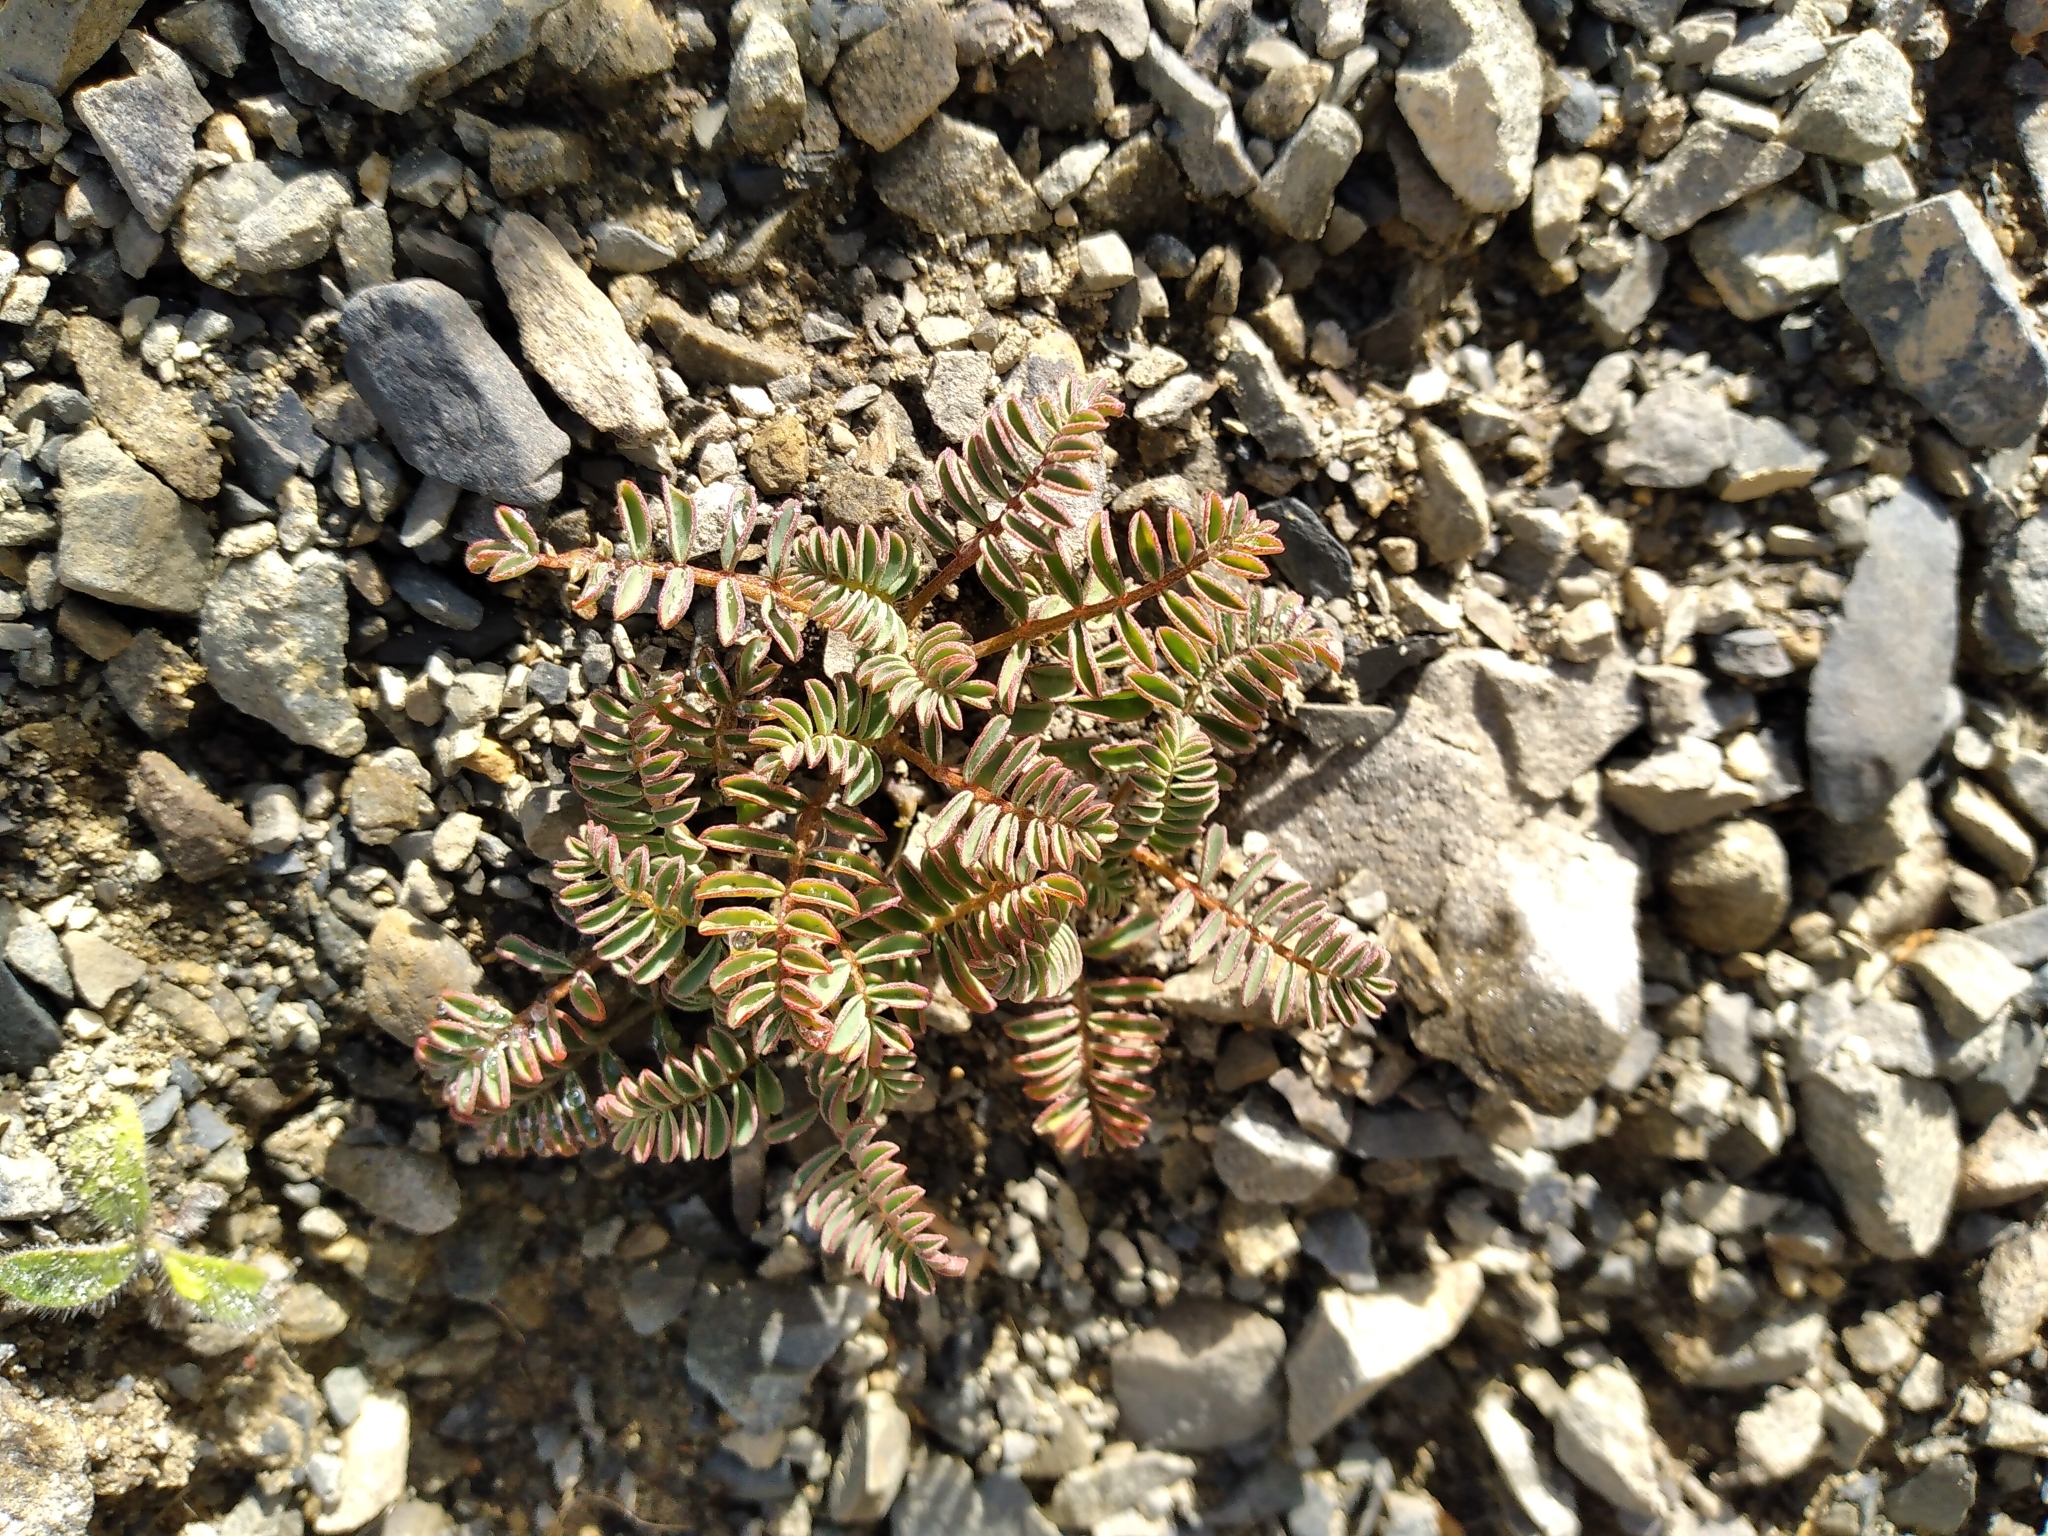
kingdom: Plantae
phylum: Tracheophyta
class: Magnoliopsida
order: Fabales
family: Fabaceae
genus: Montigena
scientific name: Montigena novae-zelandiae
